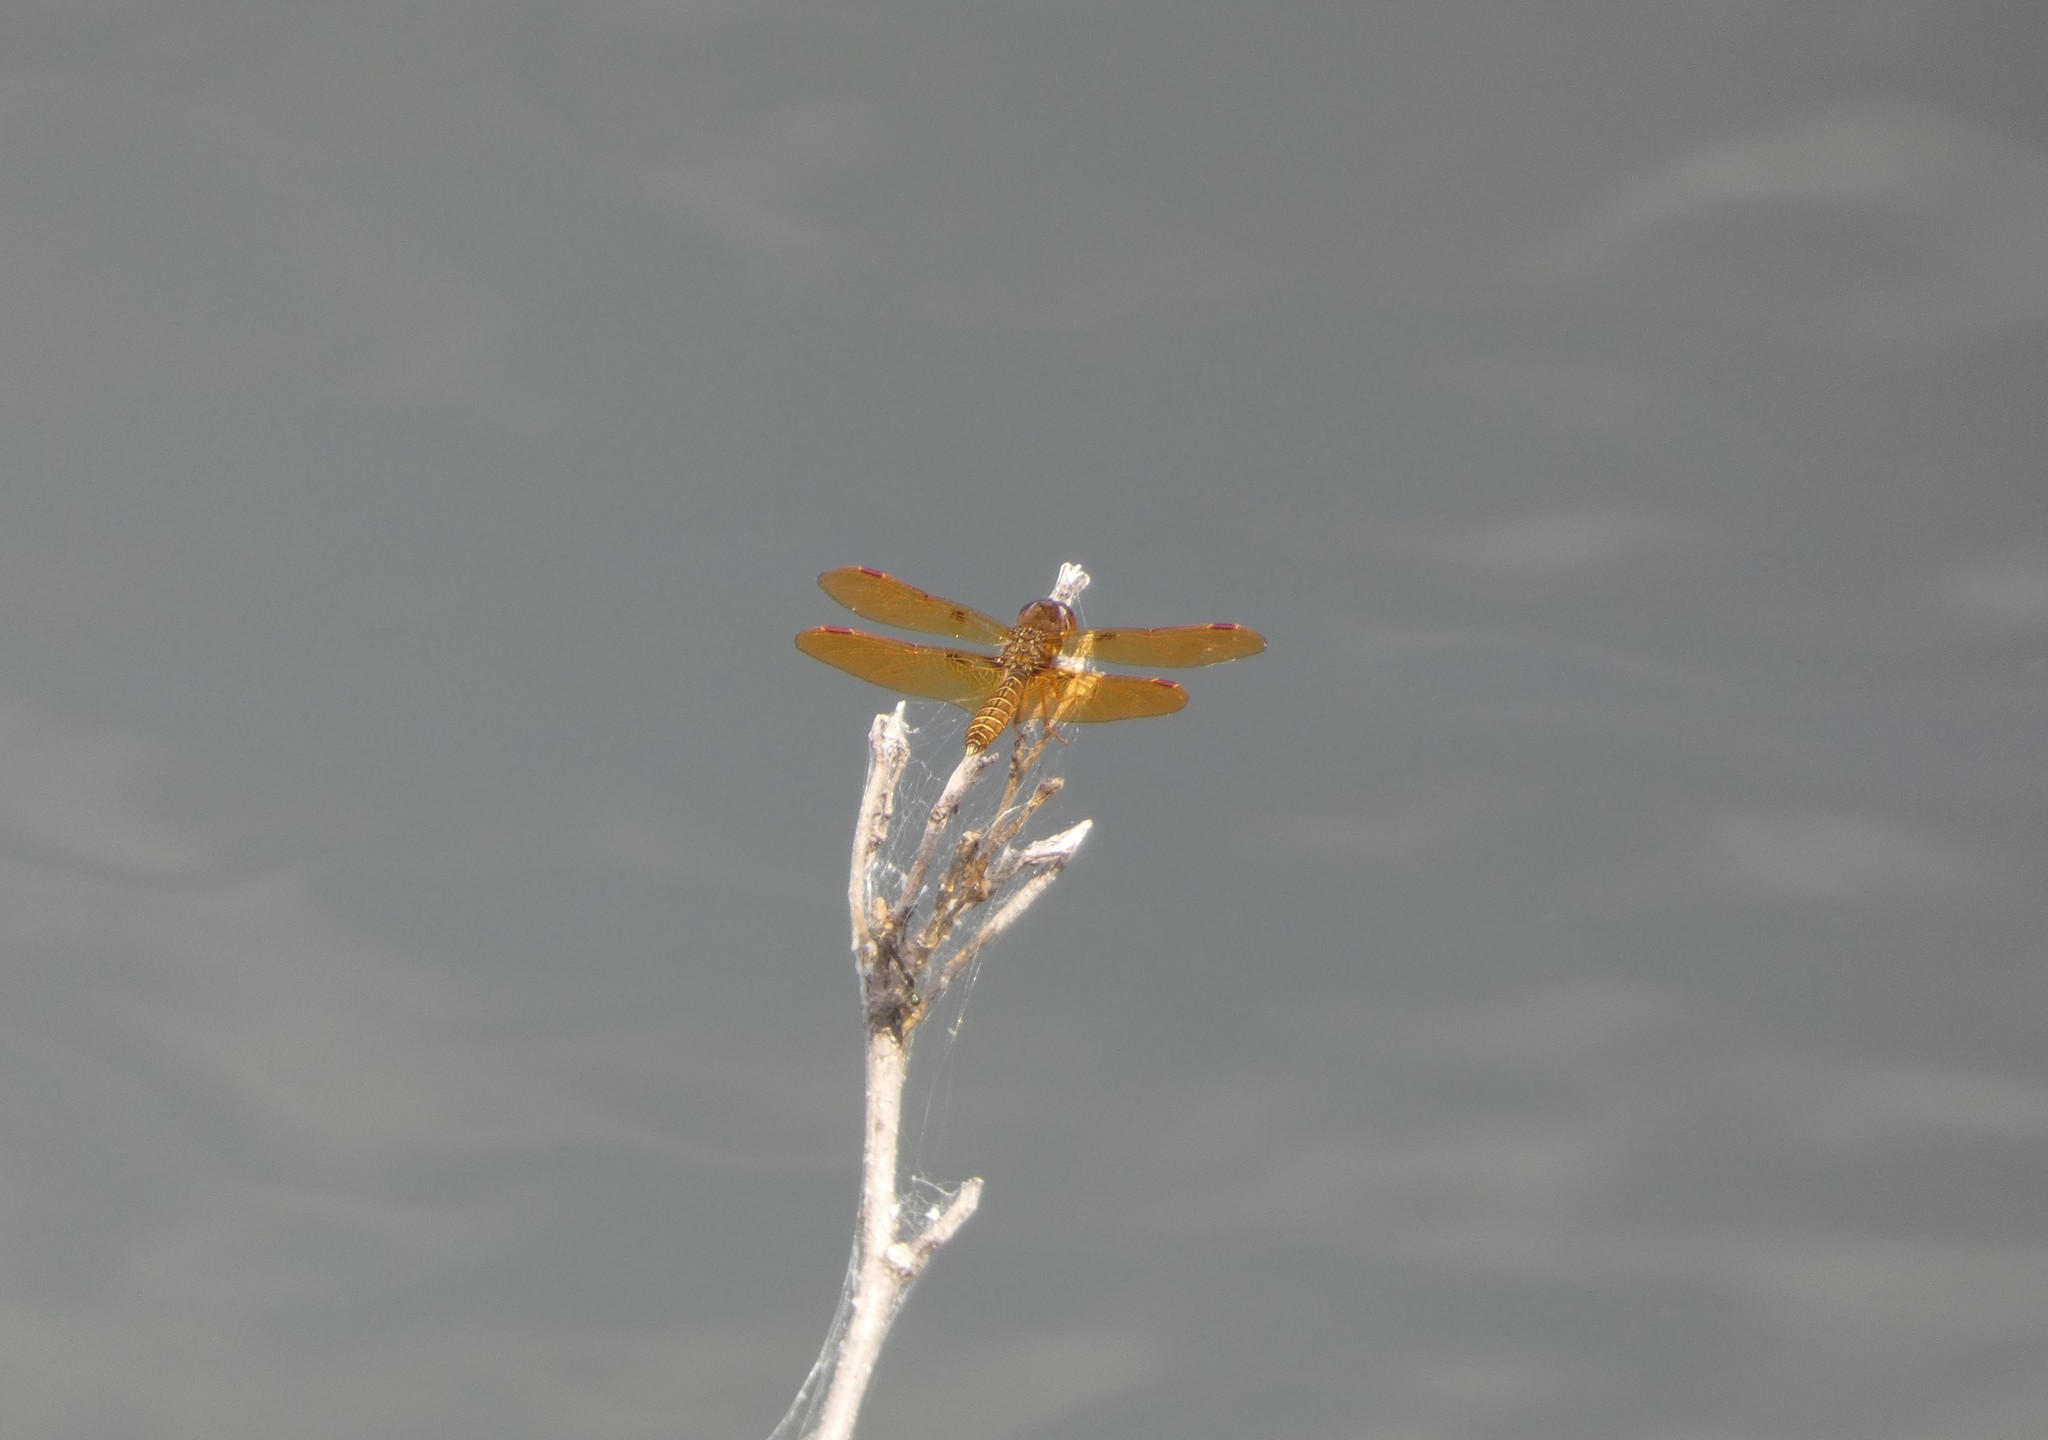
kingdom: Animalia
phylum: Arthropoda
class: Insecta
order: Odonata
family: Libellulidae
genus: Perithemis
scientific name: Perithemis tenera
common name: Eastern amberwing
